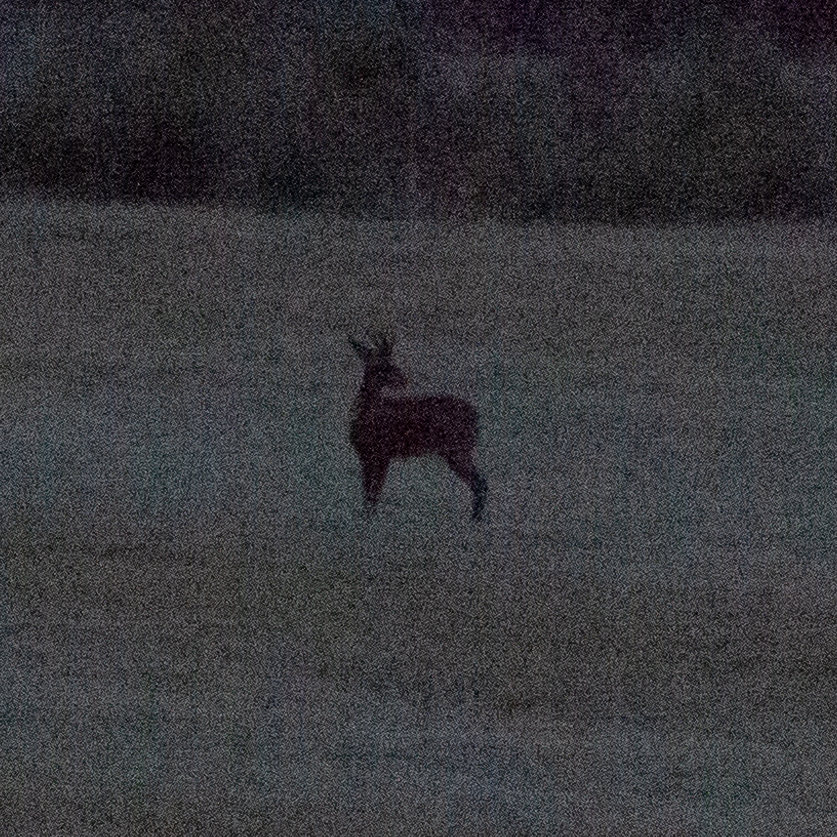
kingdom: Animalia
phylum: Chordata
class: Mammalia
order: Artiodactyla
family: Cervidae
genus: Capreolus
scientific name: Capreolus capreolus
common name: Western roe deer
